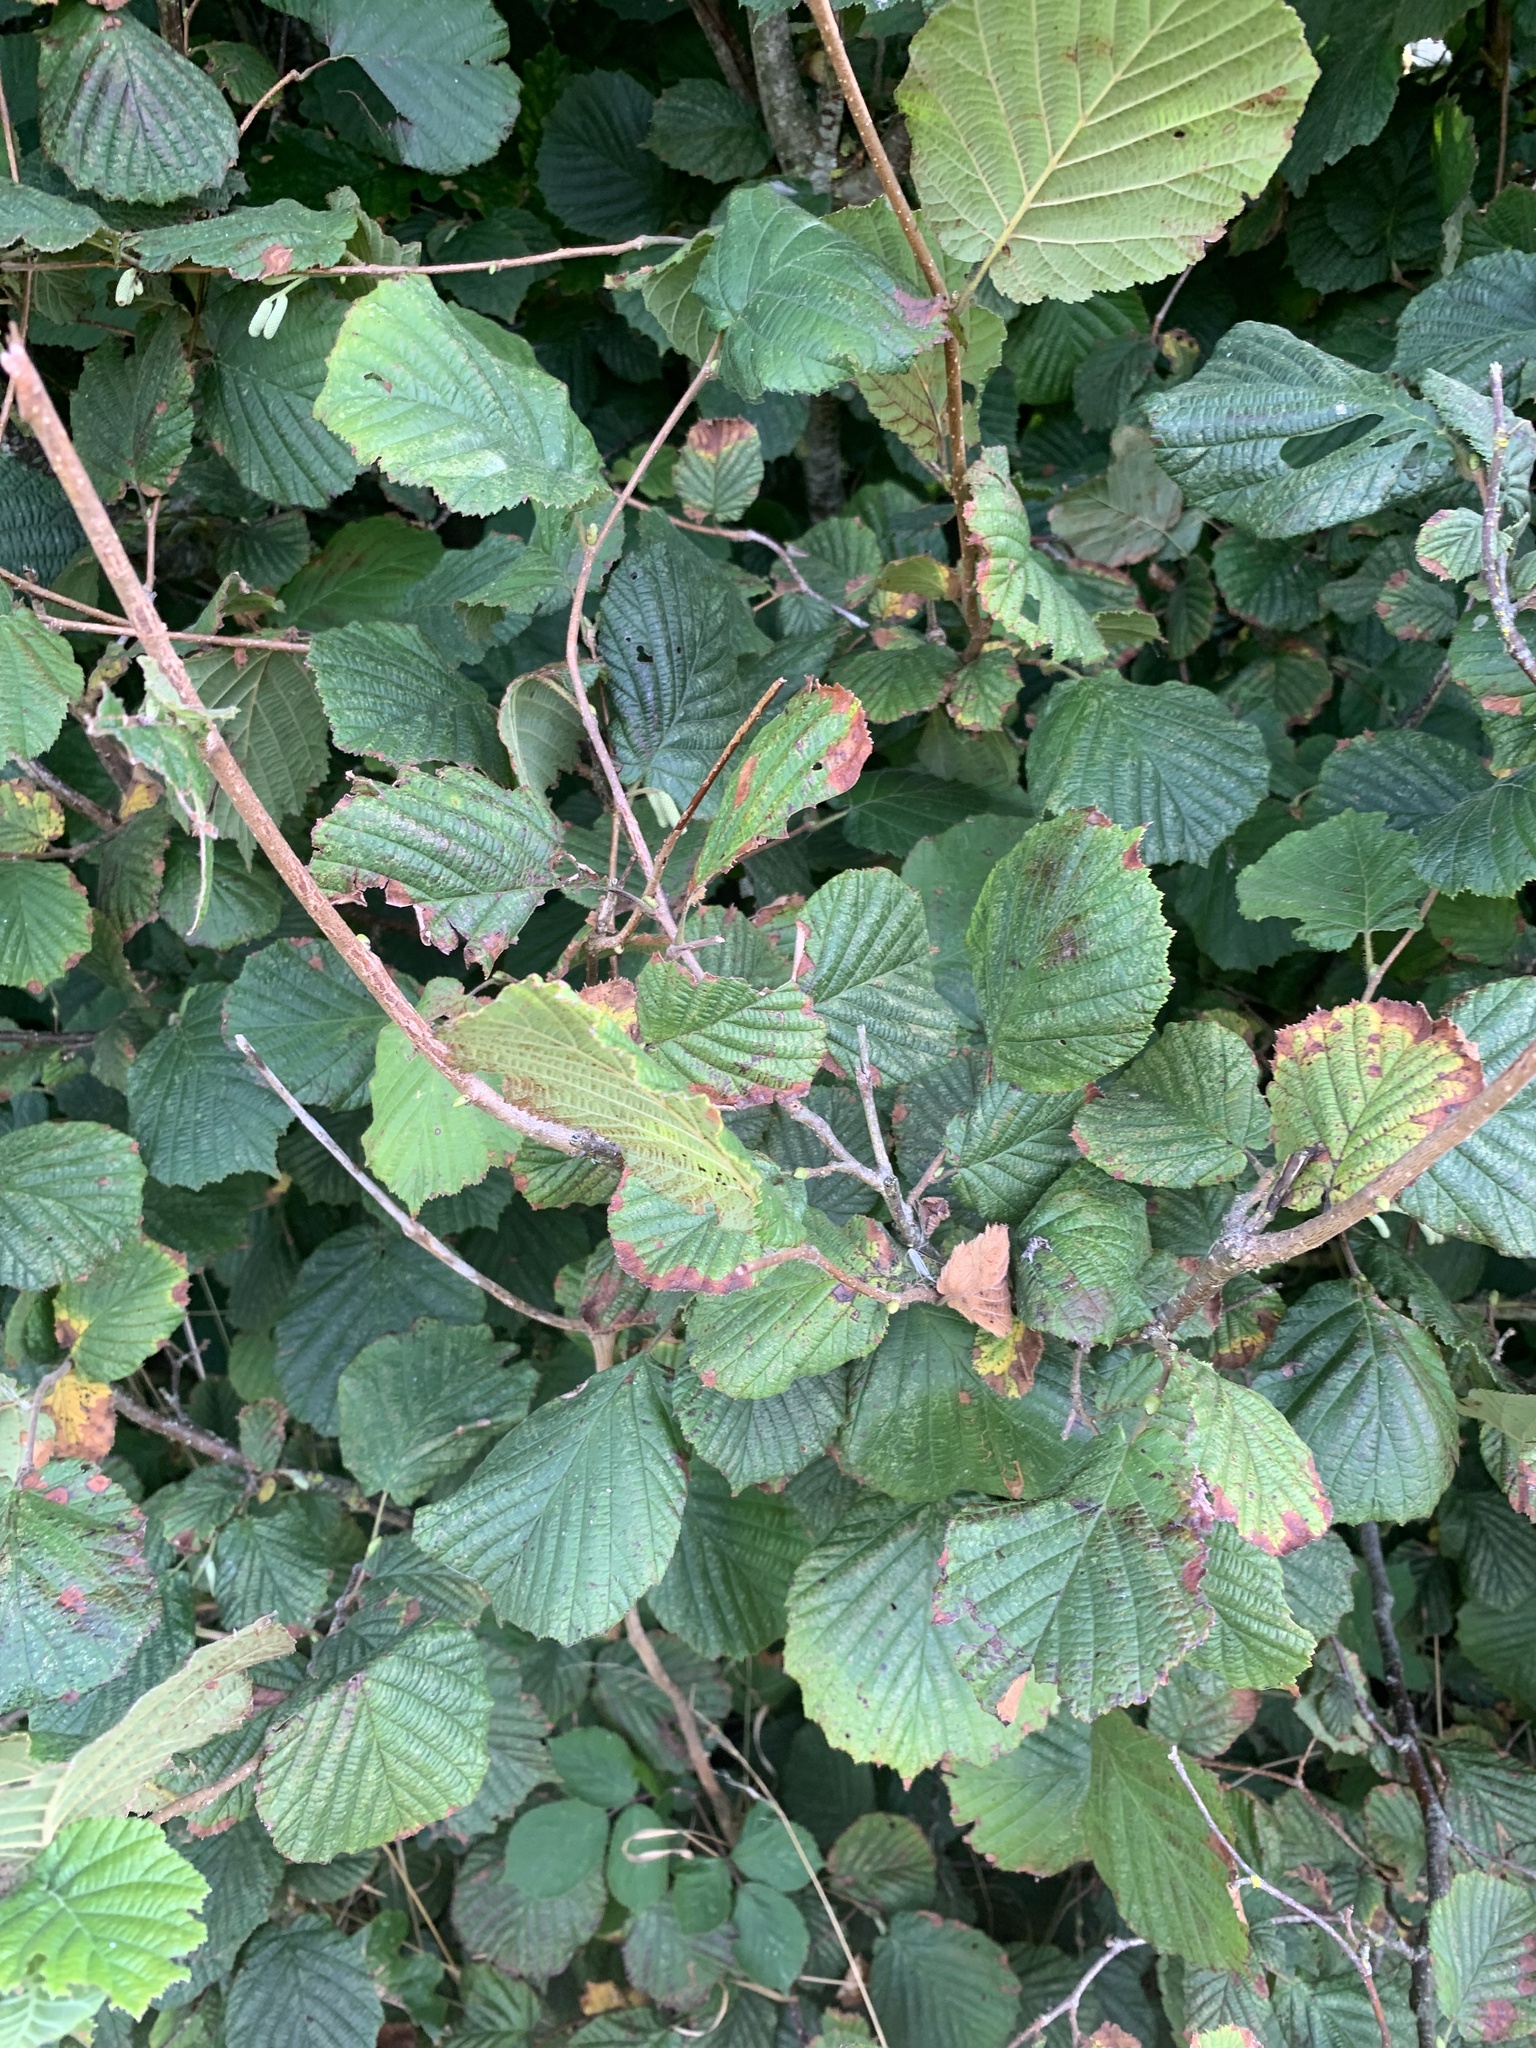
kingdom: Plantae
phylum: Tracheophyta
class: Magnoliopsida
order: Fagales
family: Betulaceae
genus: Corylus
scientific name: Corylus avellana
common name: European hazel
